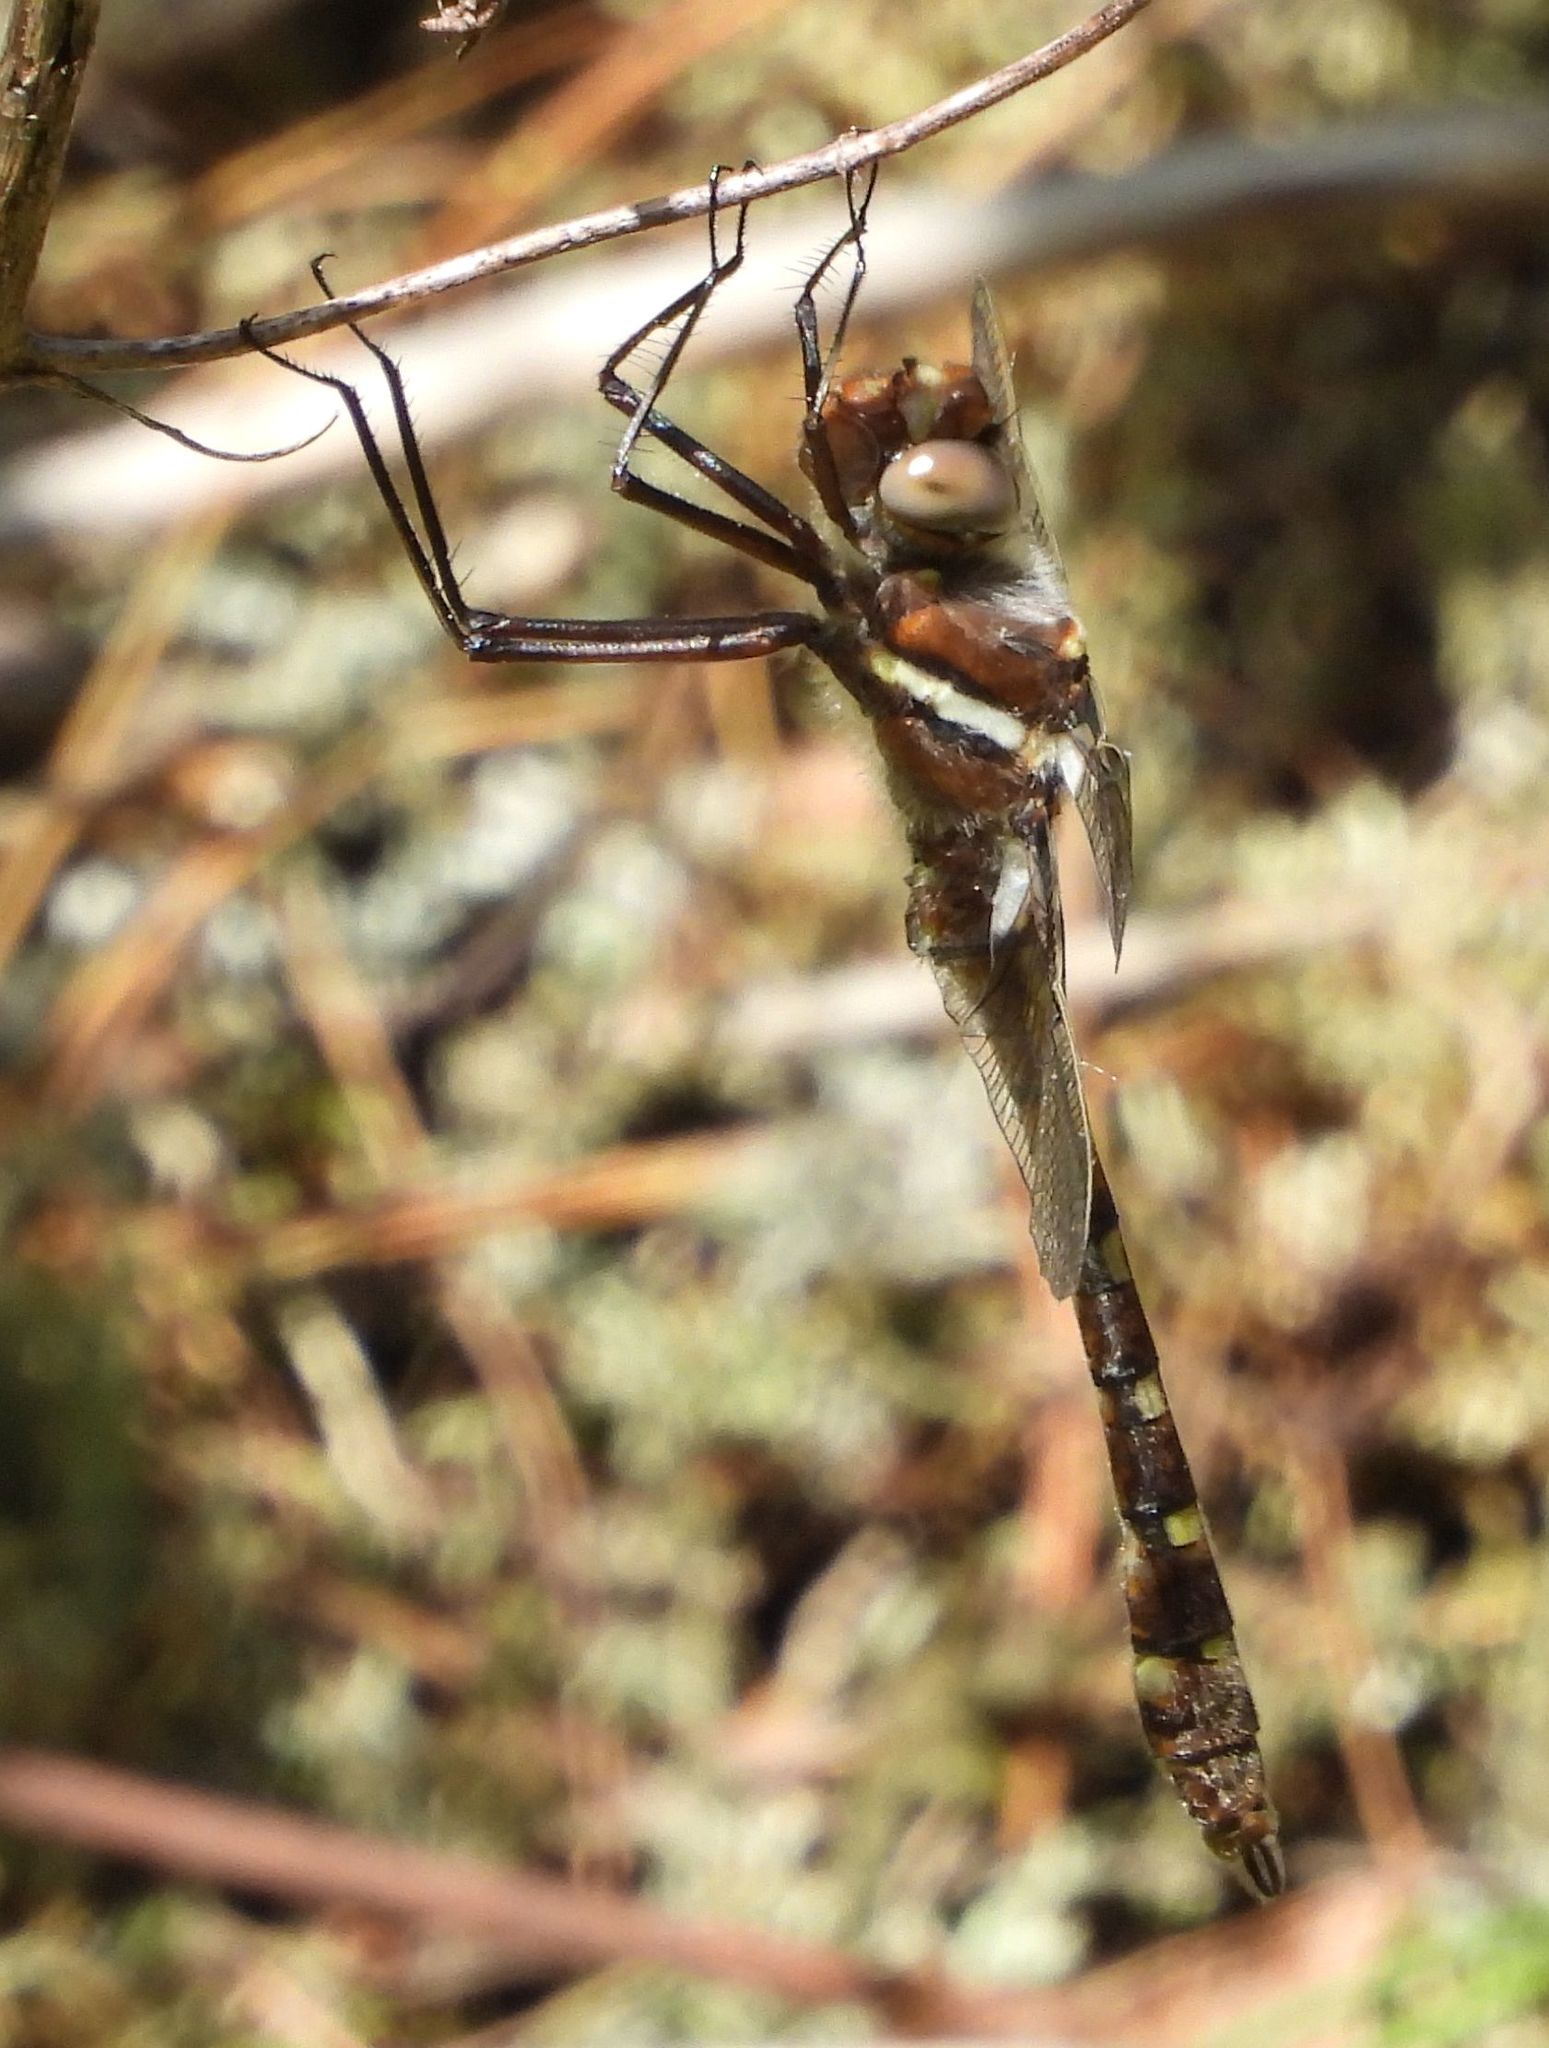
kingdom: Animalia
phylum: Arthropoda
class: Insecta
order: Odonata
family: Macromiidae
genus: Didymops
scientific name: Didymops transversa
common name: Stream cruiser
